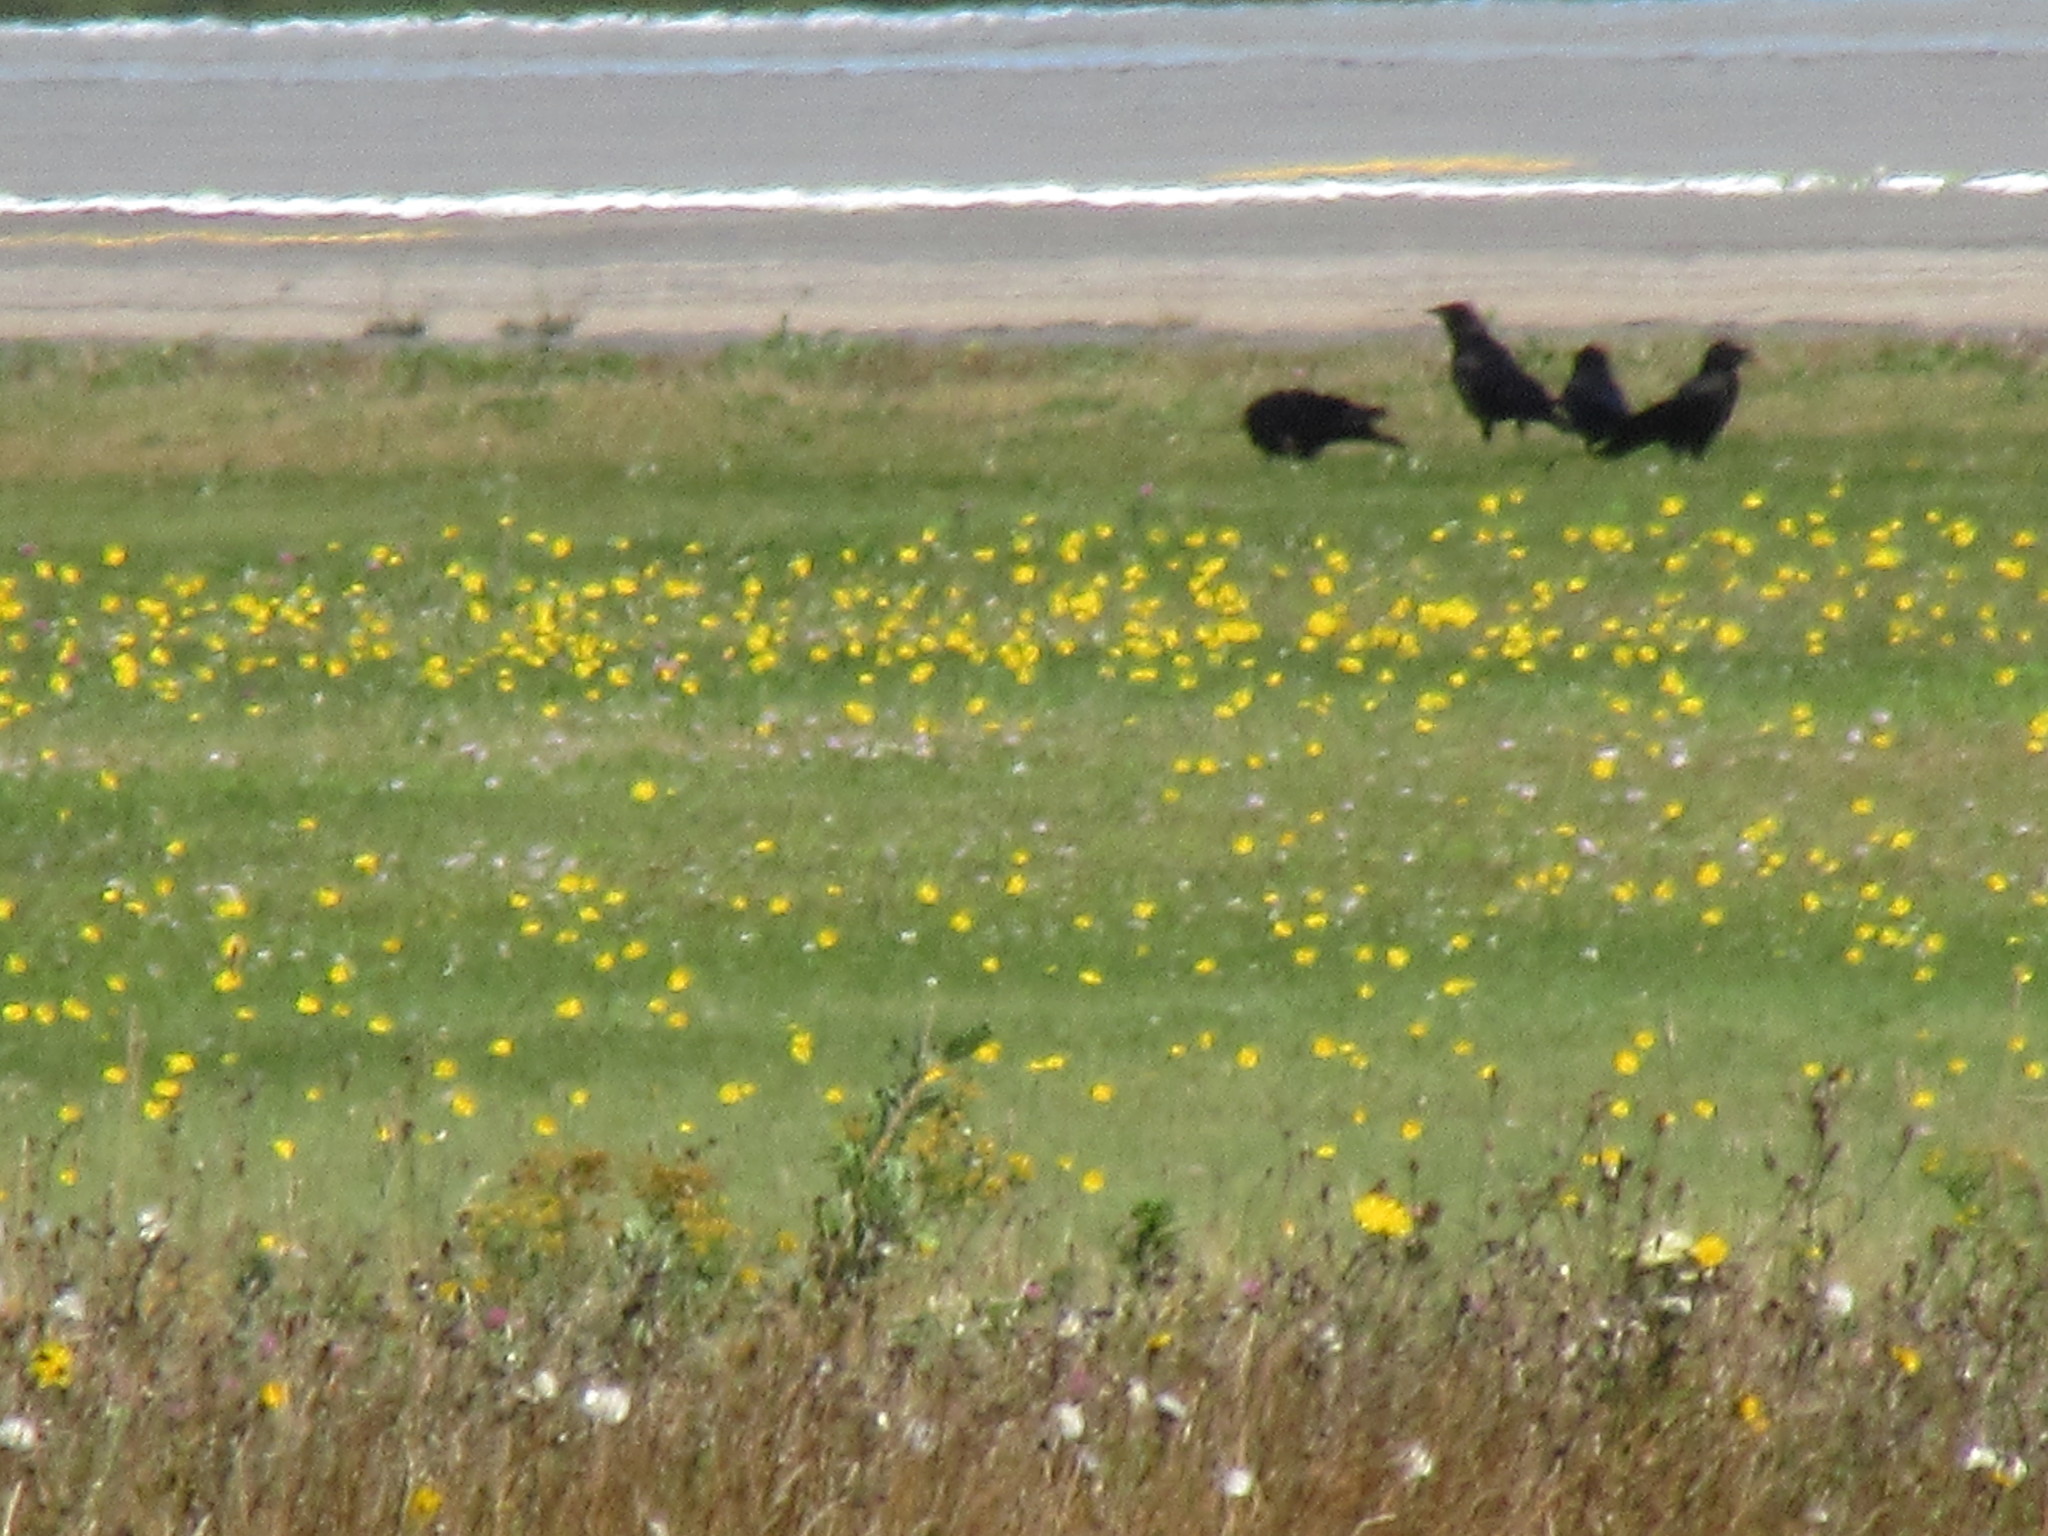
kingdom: Animalia
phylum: Chordata
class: Aves
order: Passeriformes
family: Corvidae
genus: Corvus
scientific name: Corvus corax
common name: Common raven
